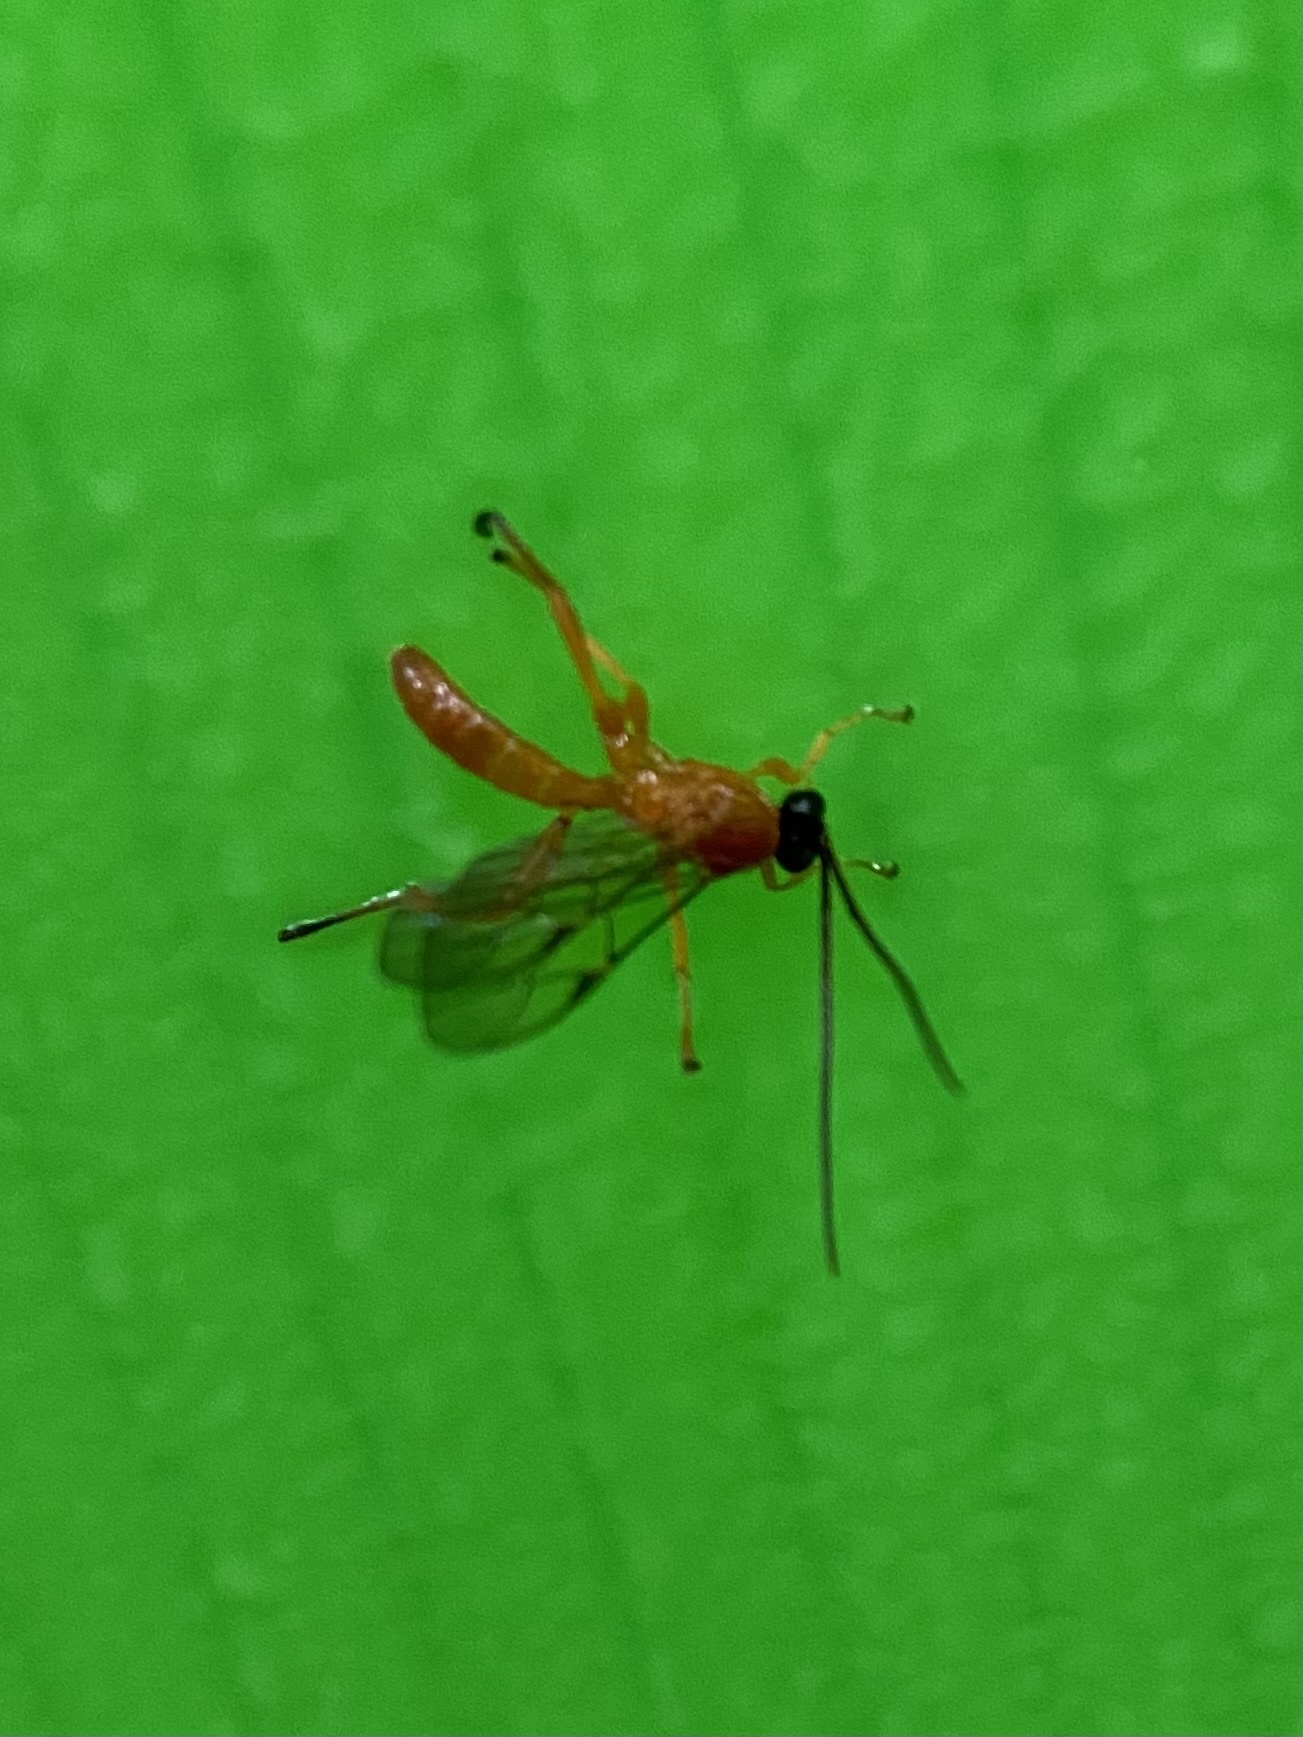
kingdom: Animalia
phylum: Arthropoda
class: Insecta
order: Hymenoptera
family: Ichneumonidae
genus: Theronia
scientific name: Theronia hilaris
